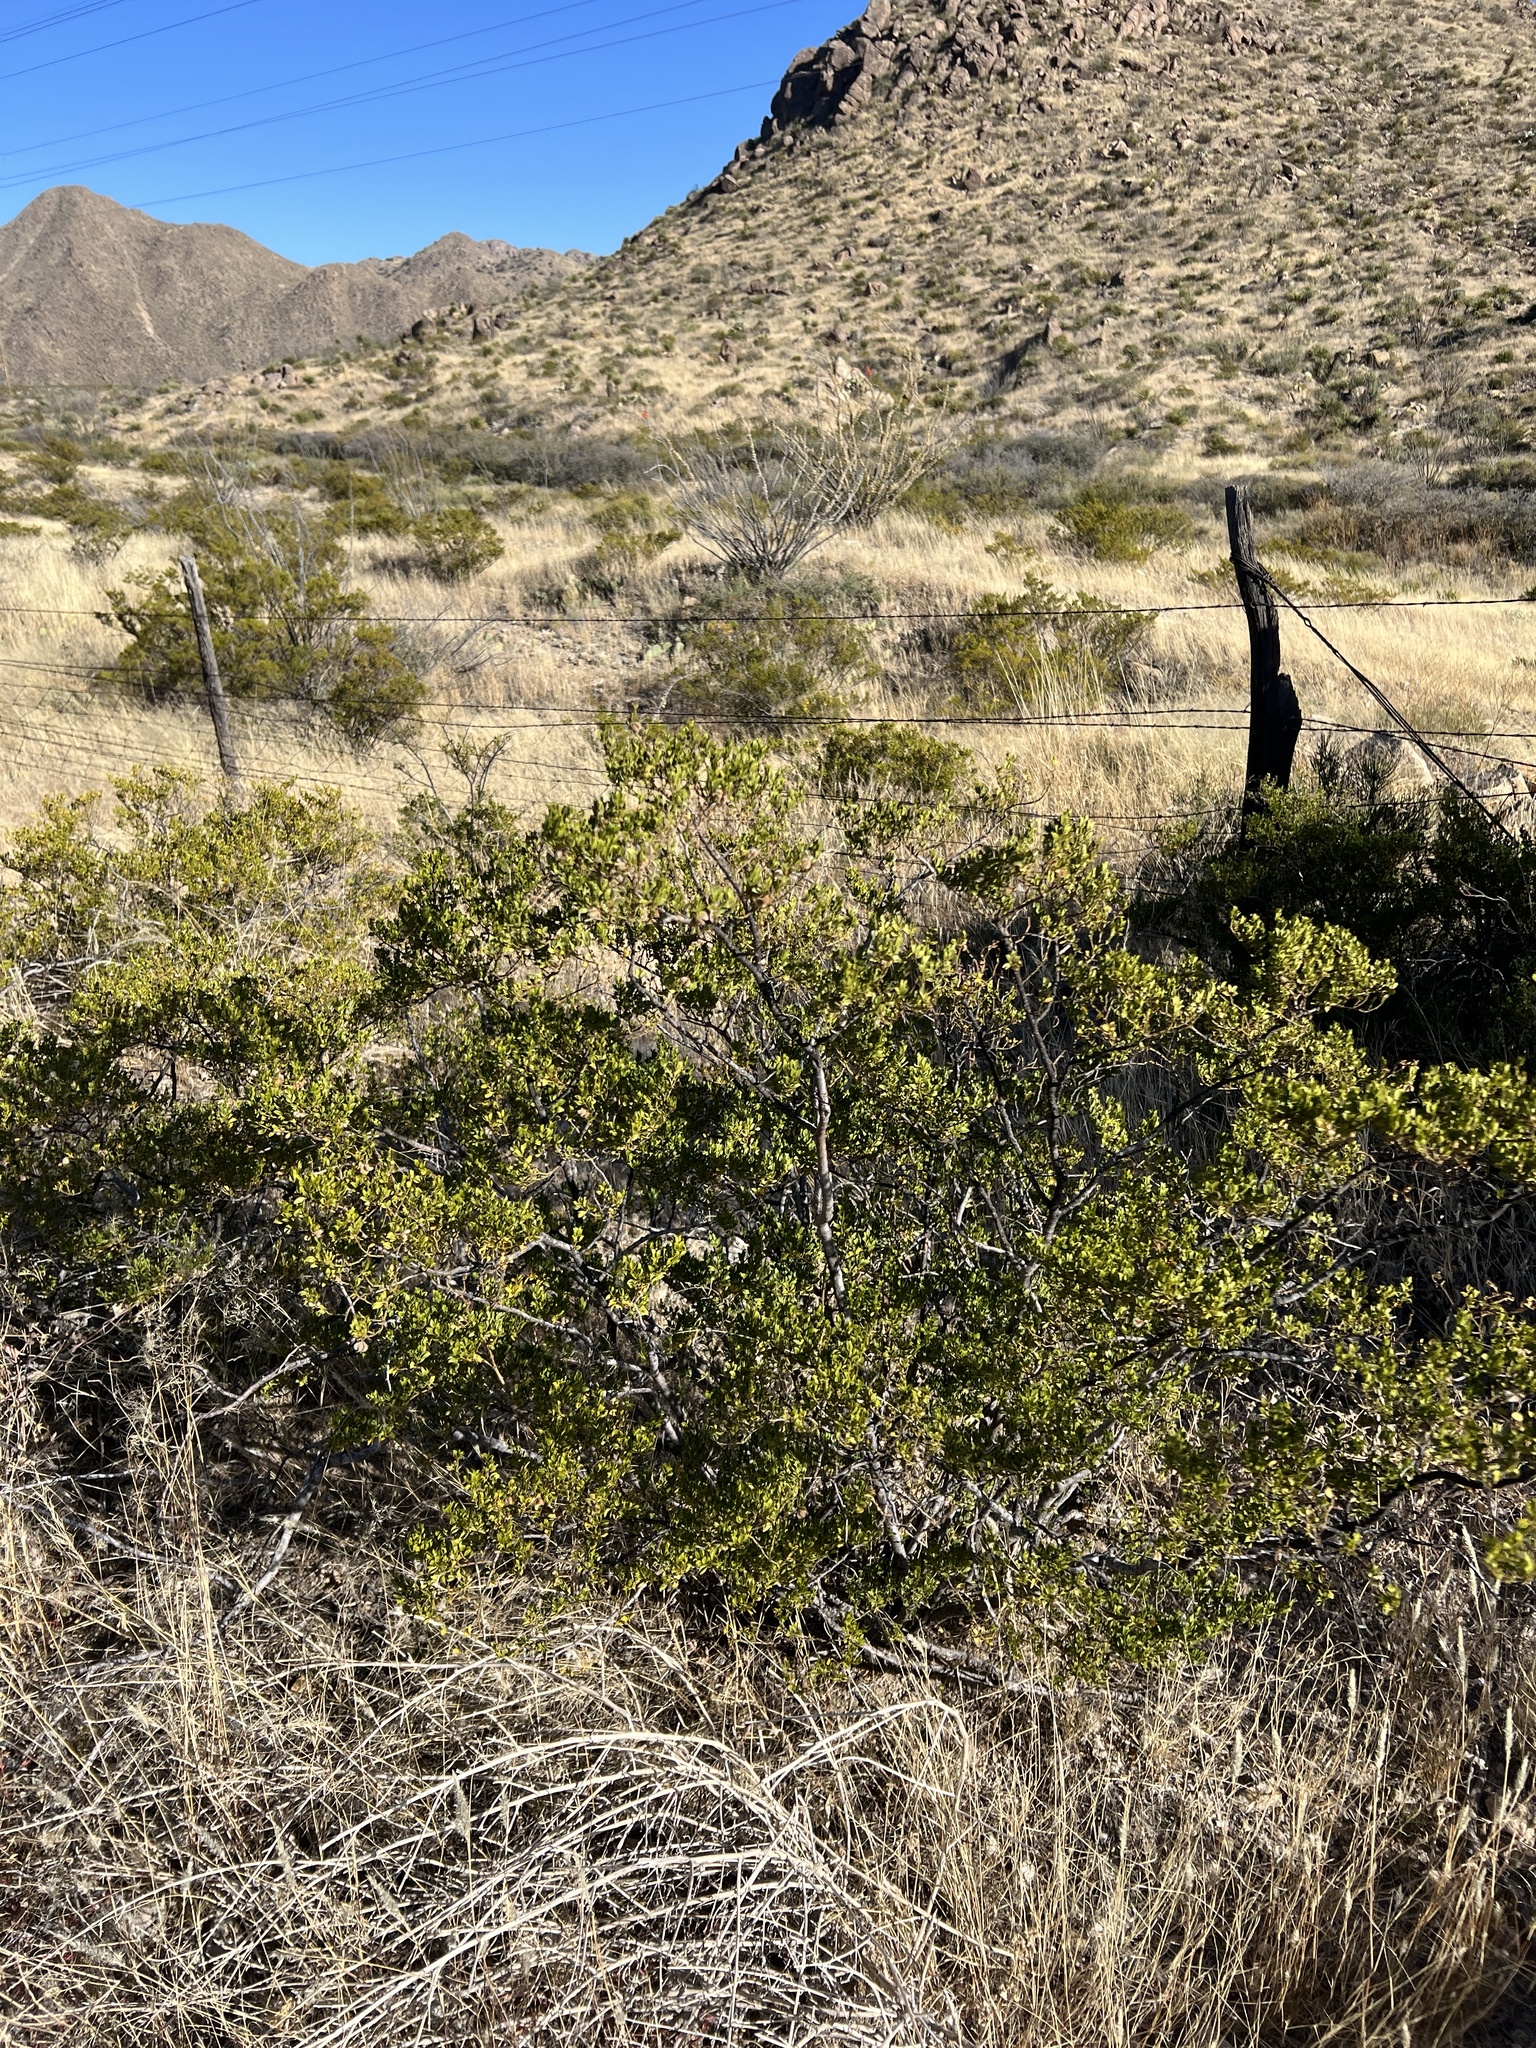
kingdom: Plantae
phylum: Tracheophyta
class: Magnoliopsida
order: Zygophyllales
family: Zygophyllaceae
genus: Larrea
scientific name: Larrea tridentata
